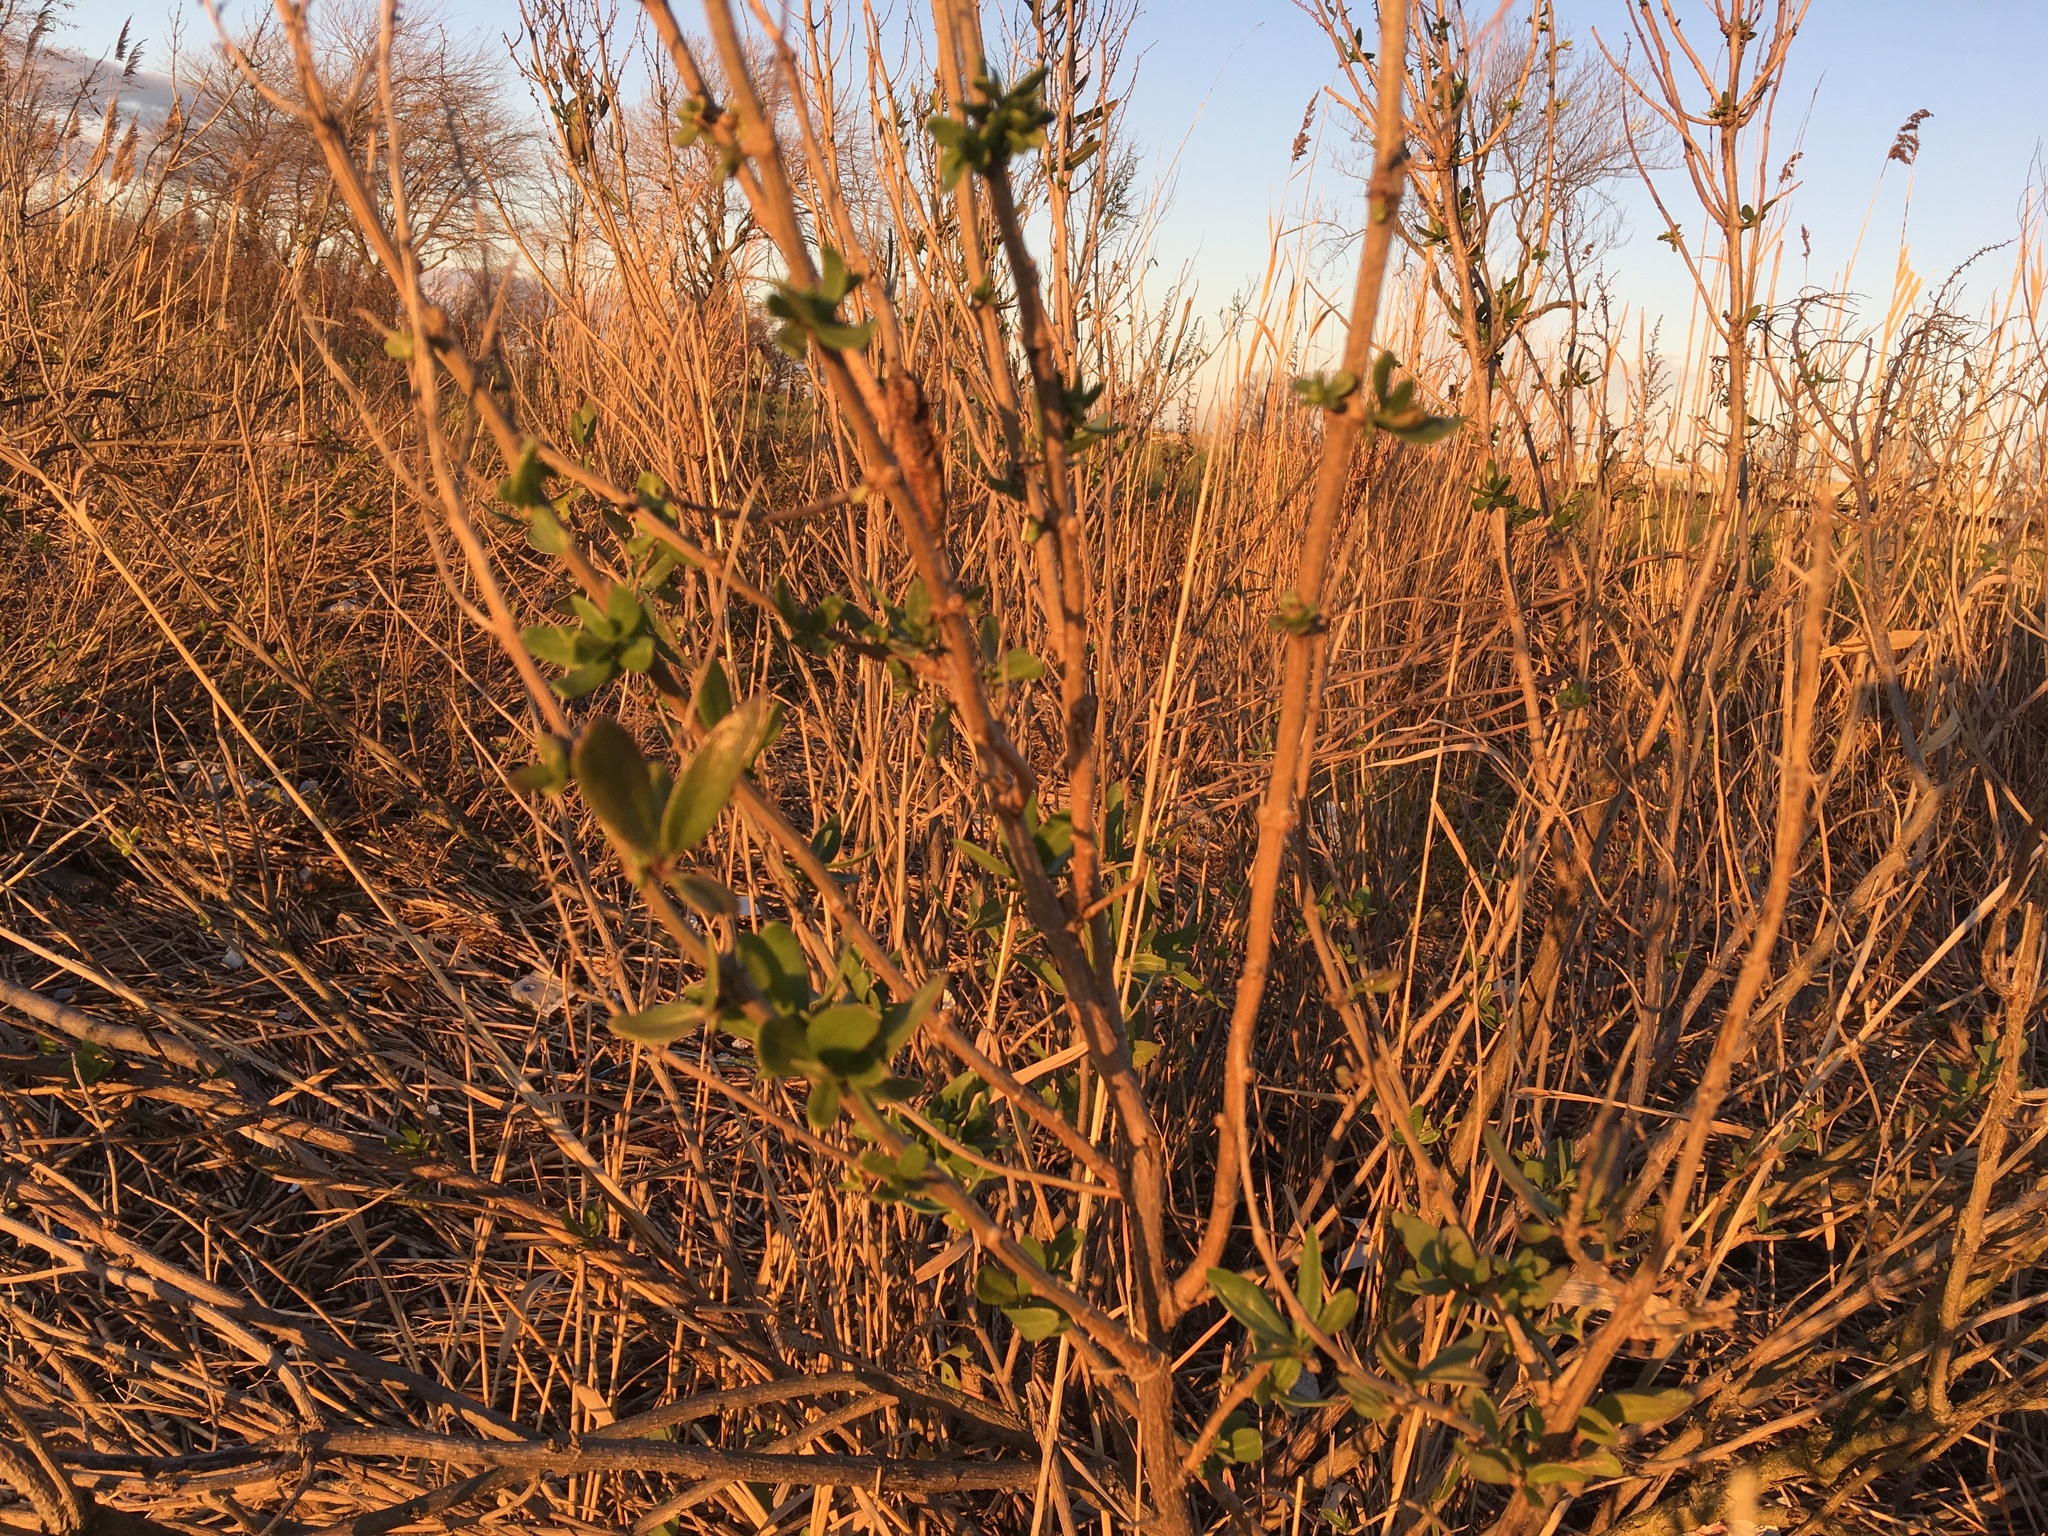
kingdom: Plantae
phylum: Tracheophyta
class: Magnoliopsida
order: Asterales
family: Asteraceae
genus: Iva
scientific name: Iva frutescens
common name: Big-leaved marsh-elder
